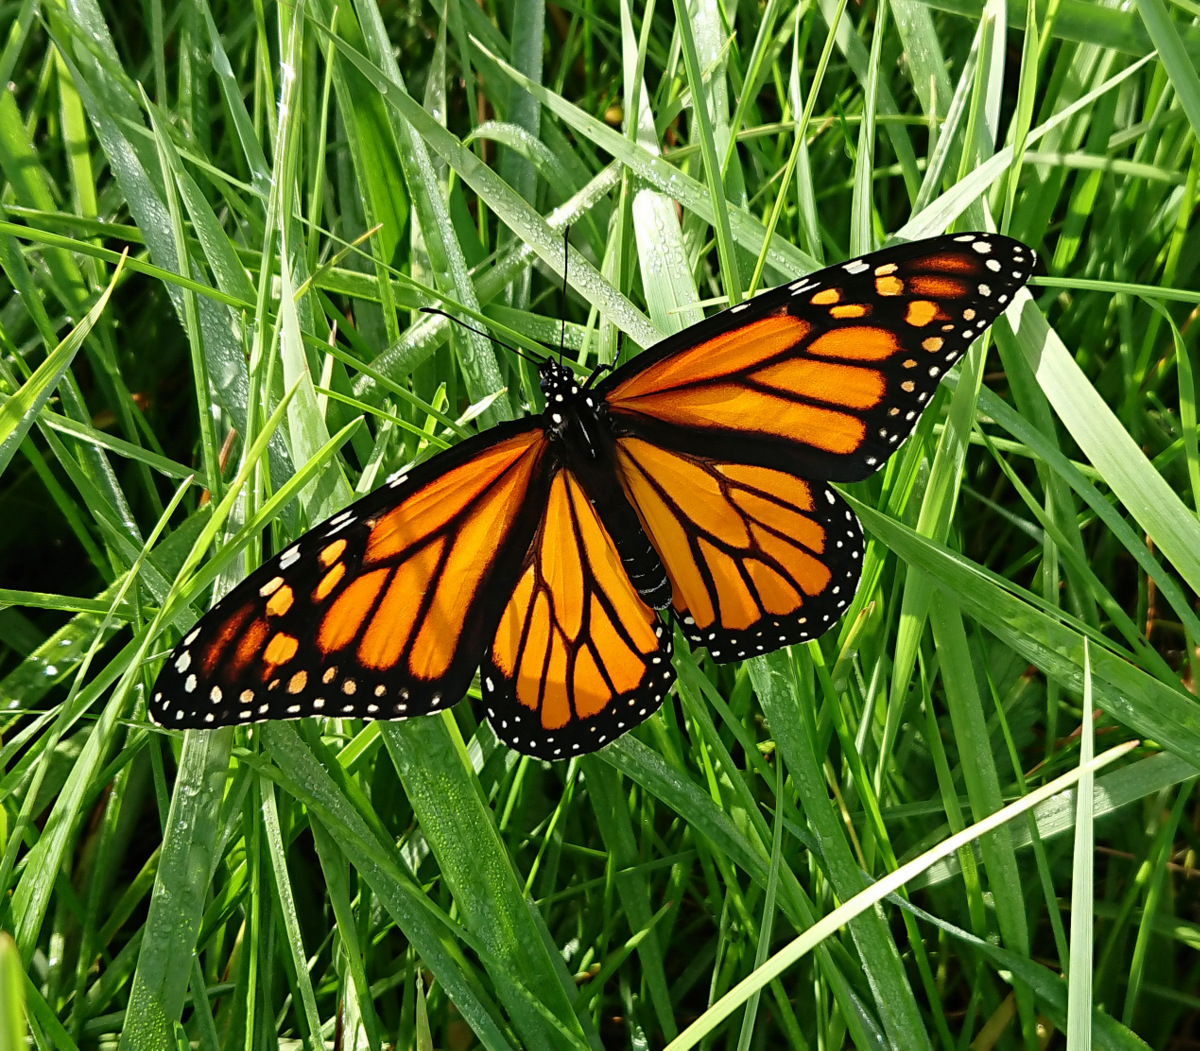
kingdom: Animalia
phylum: Arthropoda
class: Insecta
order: Lepidoptera
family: Nymphalidae
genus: Danaus
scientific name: Danaus plexippus
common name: Monarch
